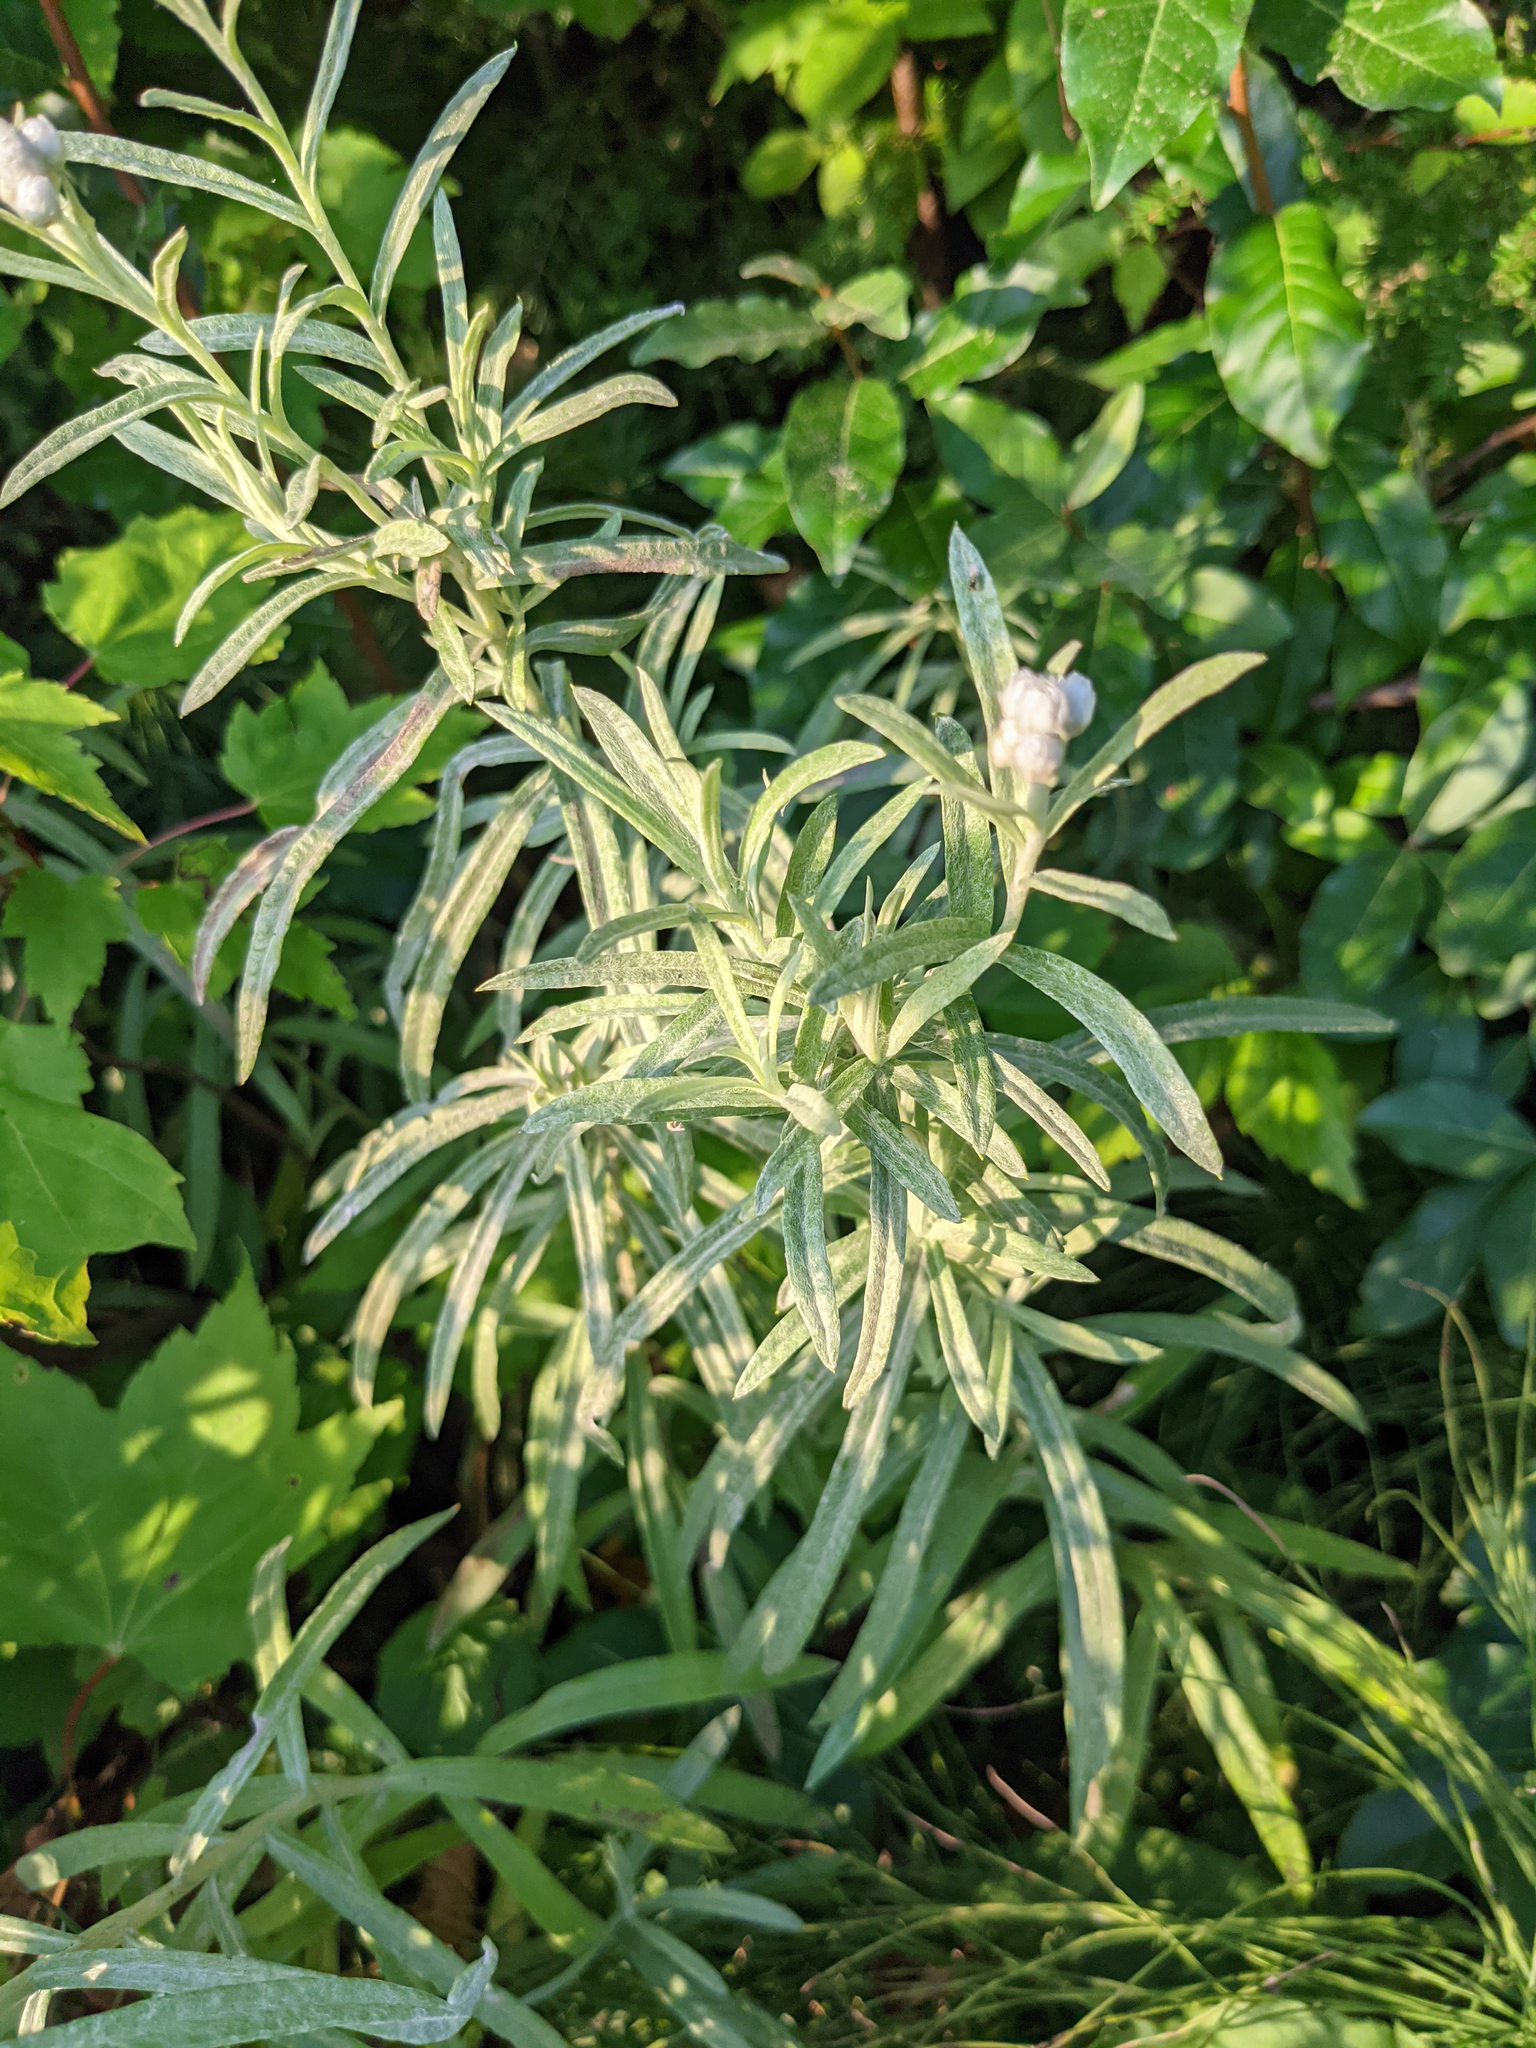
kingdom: Plantae
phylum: Tracheophyta
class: Magnoliopsida
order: Asterales
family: Asteraceae
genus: Anaphalis
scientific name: Anaphalis margaritacea
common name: Pearly everlasting
